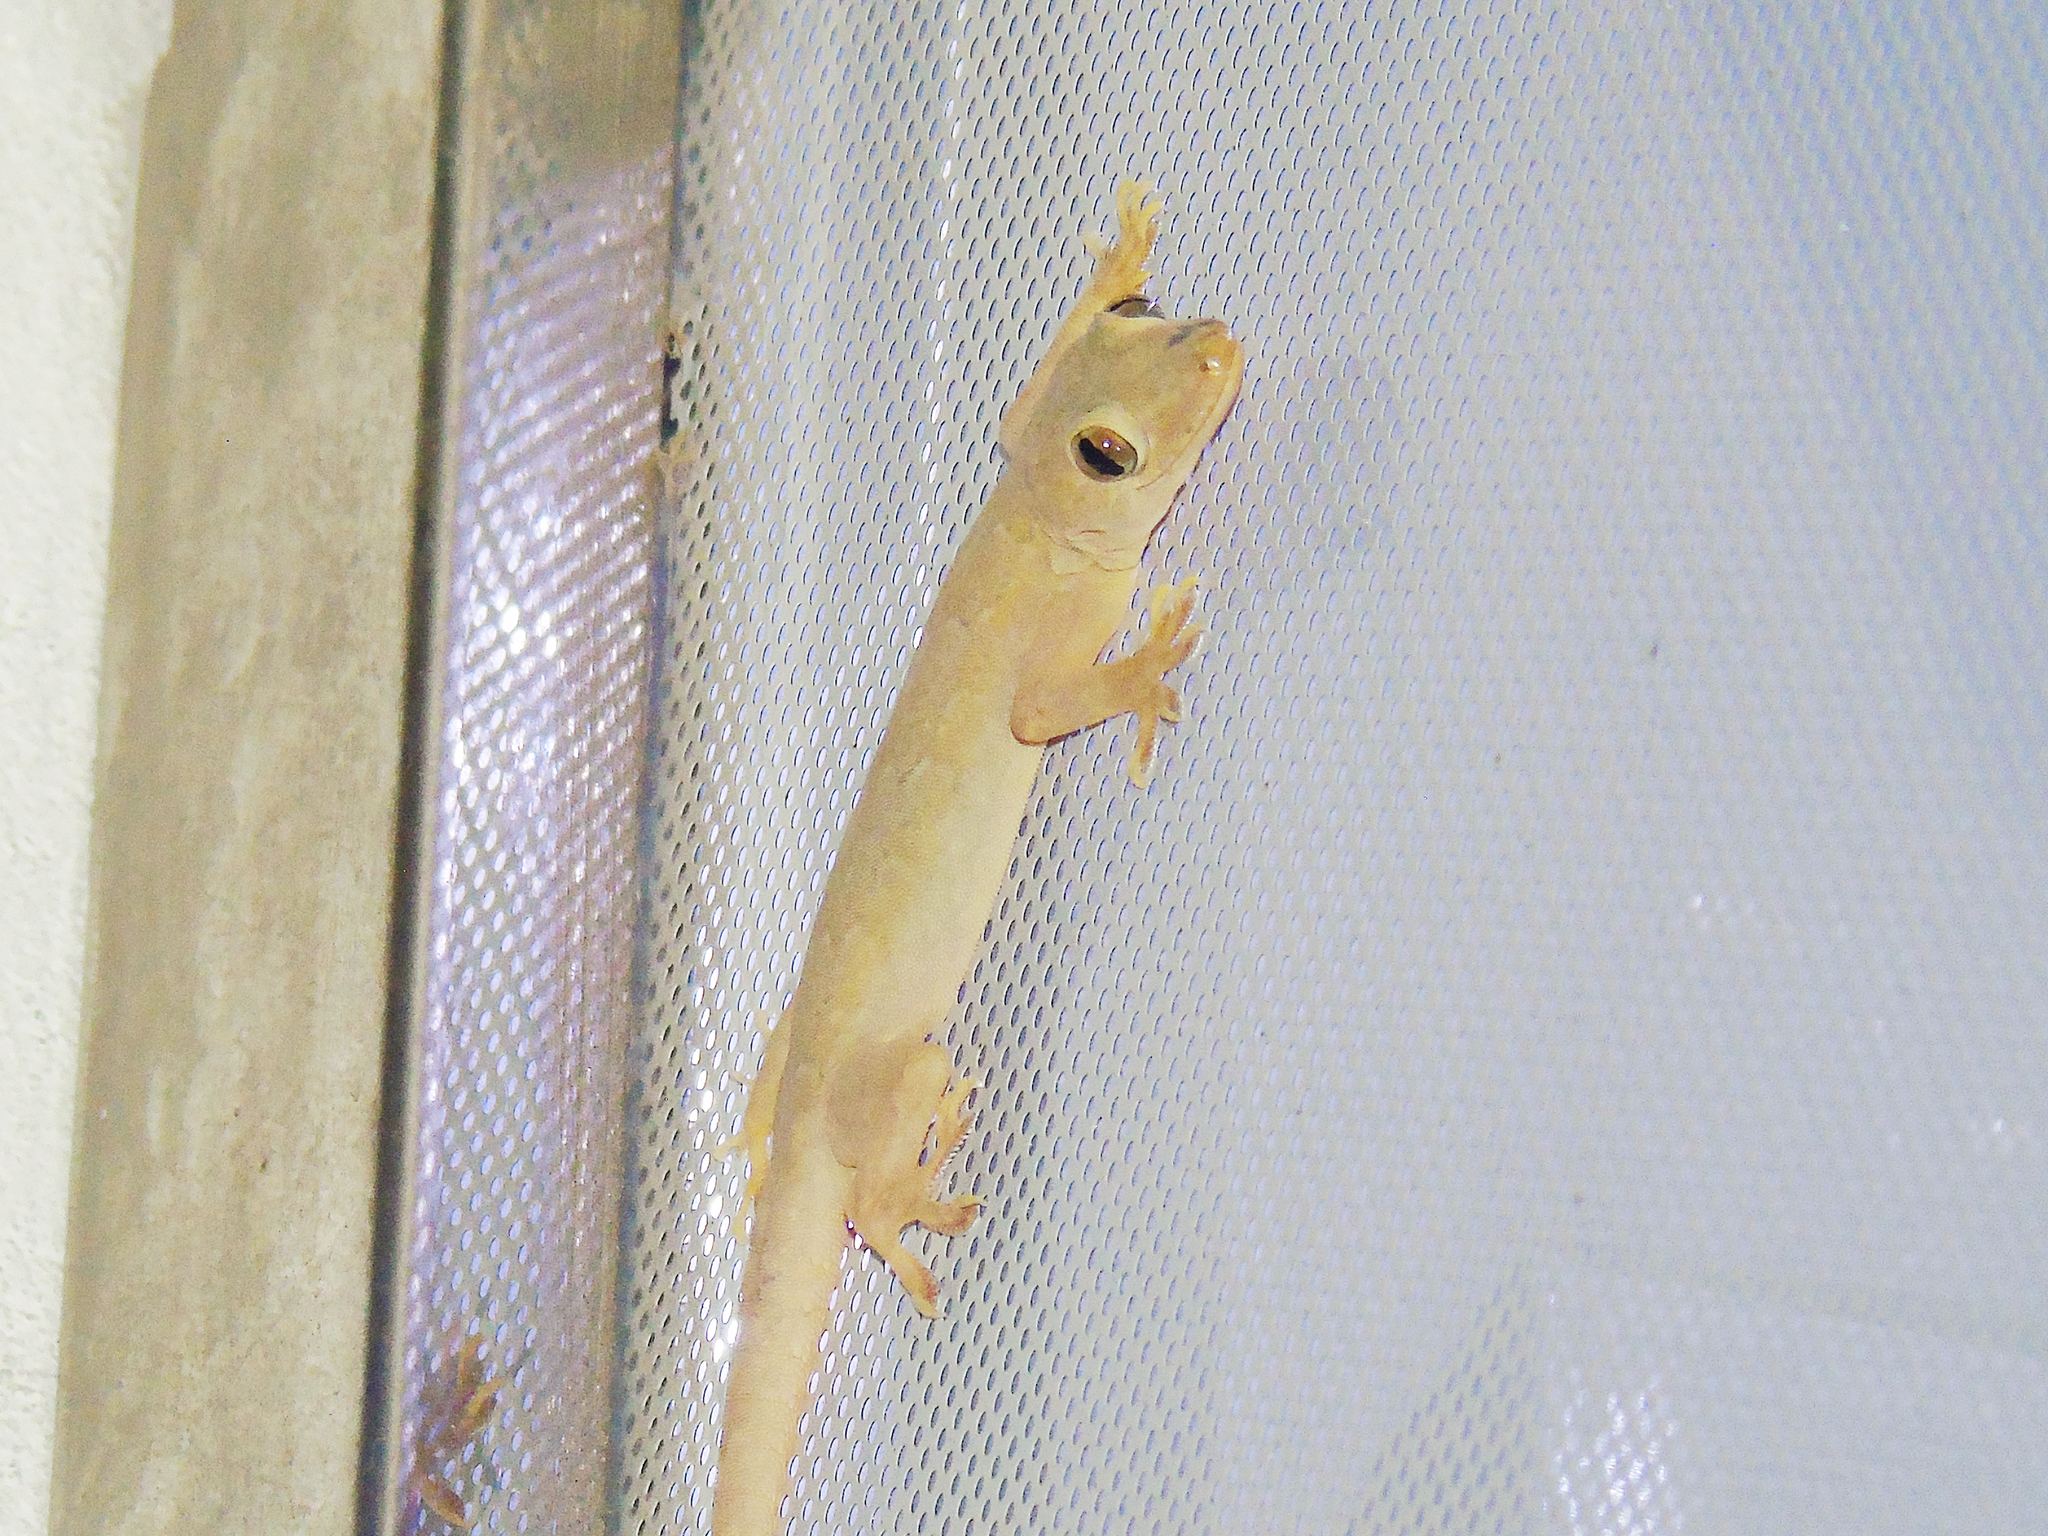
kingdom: Animalia
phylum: Chordata
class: Squamata
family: Gekkonidae
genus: Hemidactylus
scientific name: Hemidactylus flaviviridis
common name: Northern house gecko
